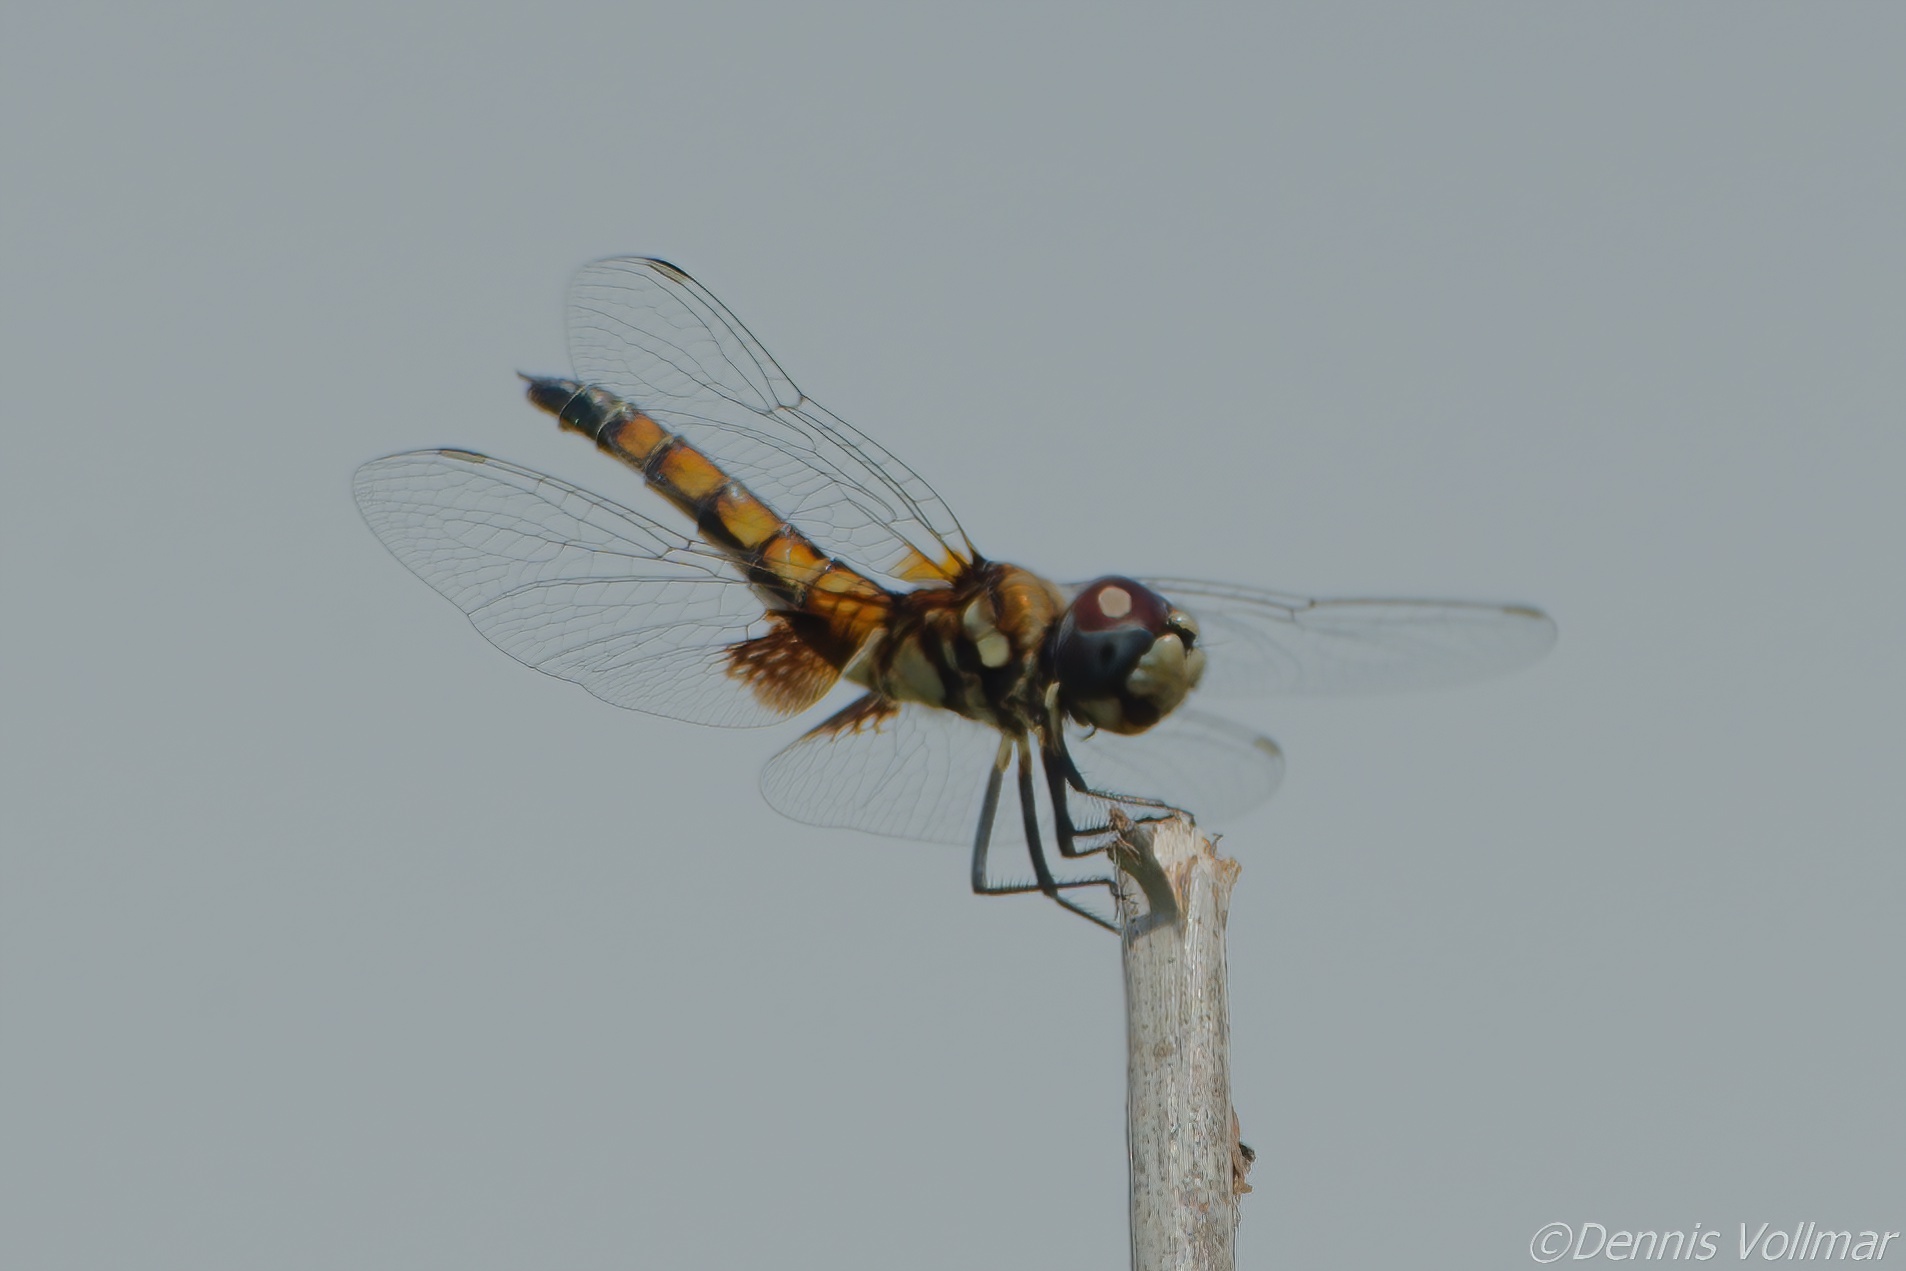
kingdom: Animalia
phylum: Arthropoda
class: Insecta
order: Odonata
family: Libellulidae
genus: Macrodiplax
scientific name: Macrodiplax balteata
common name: Marl pennant
